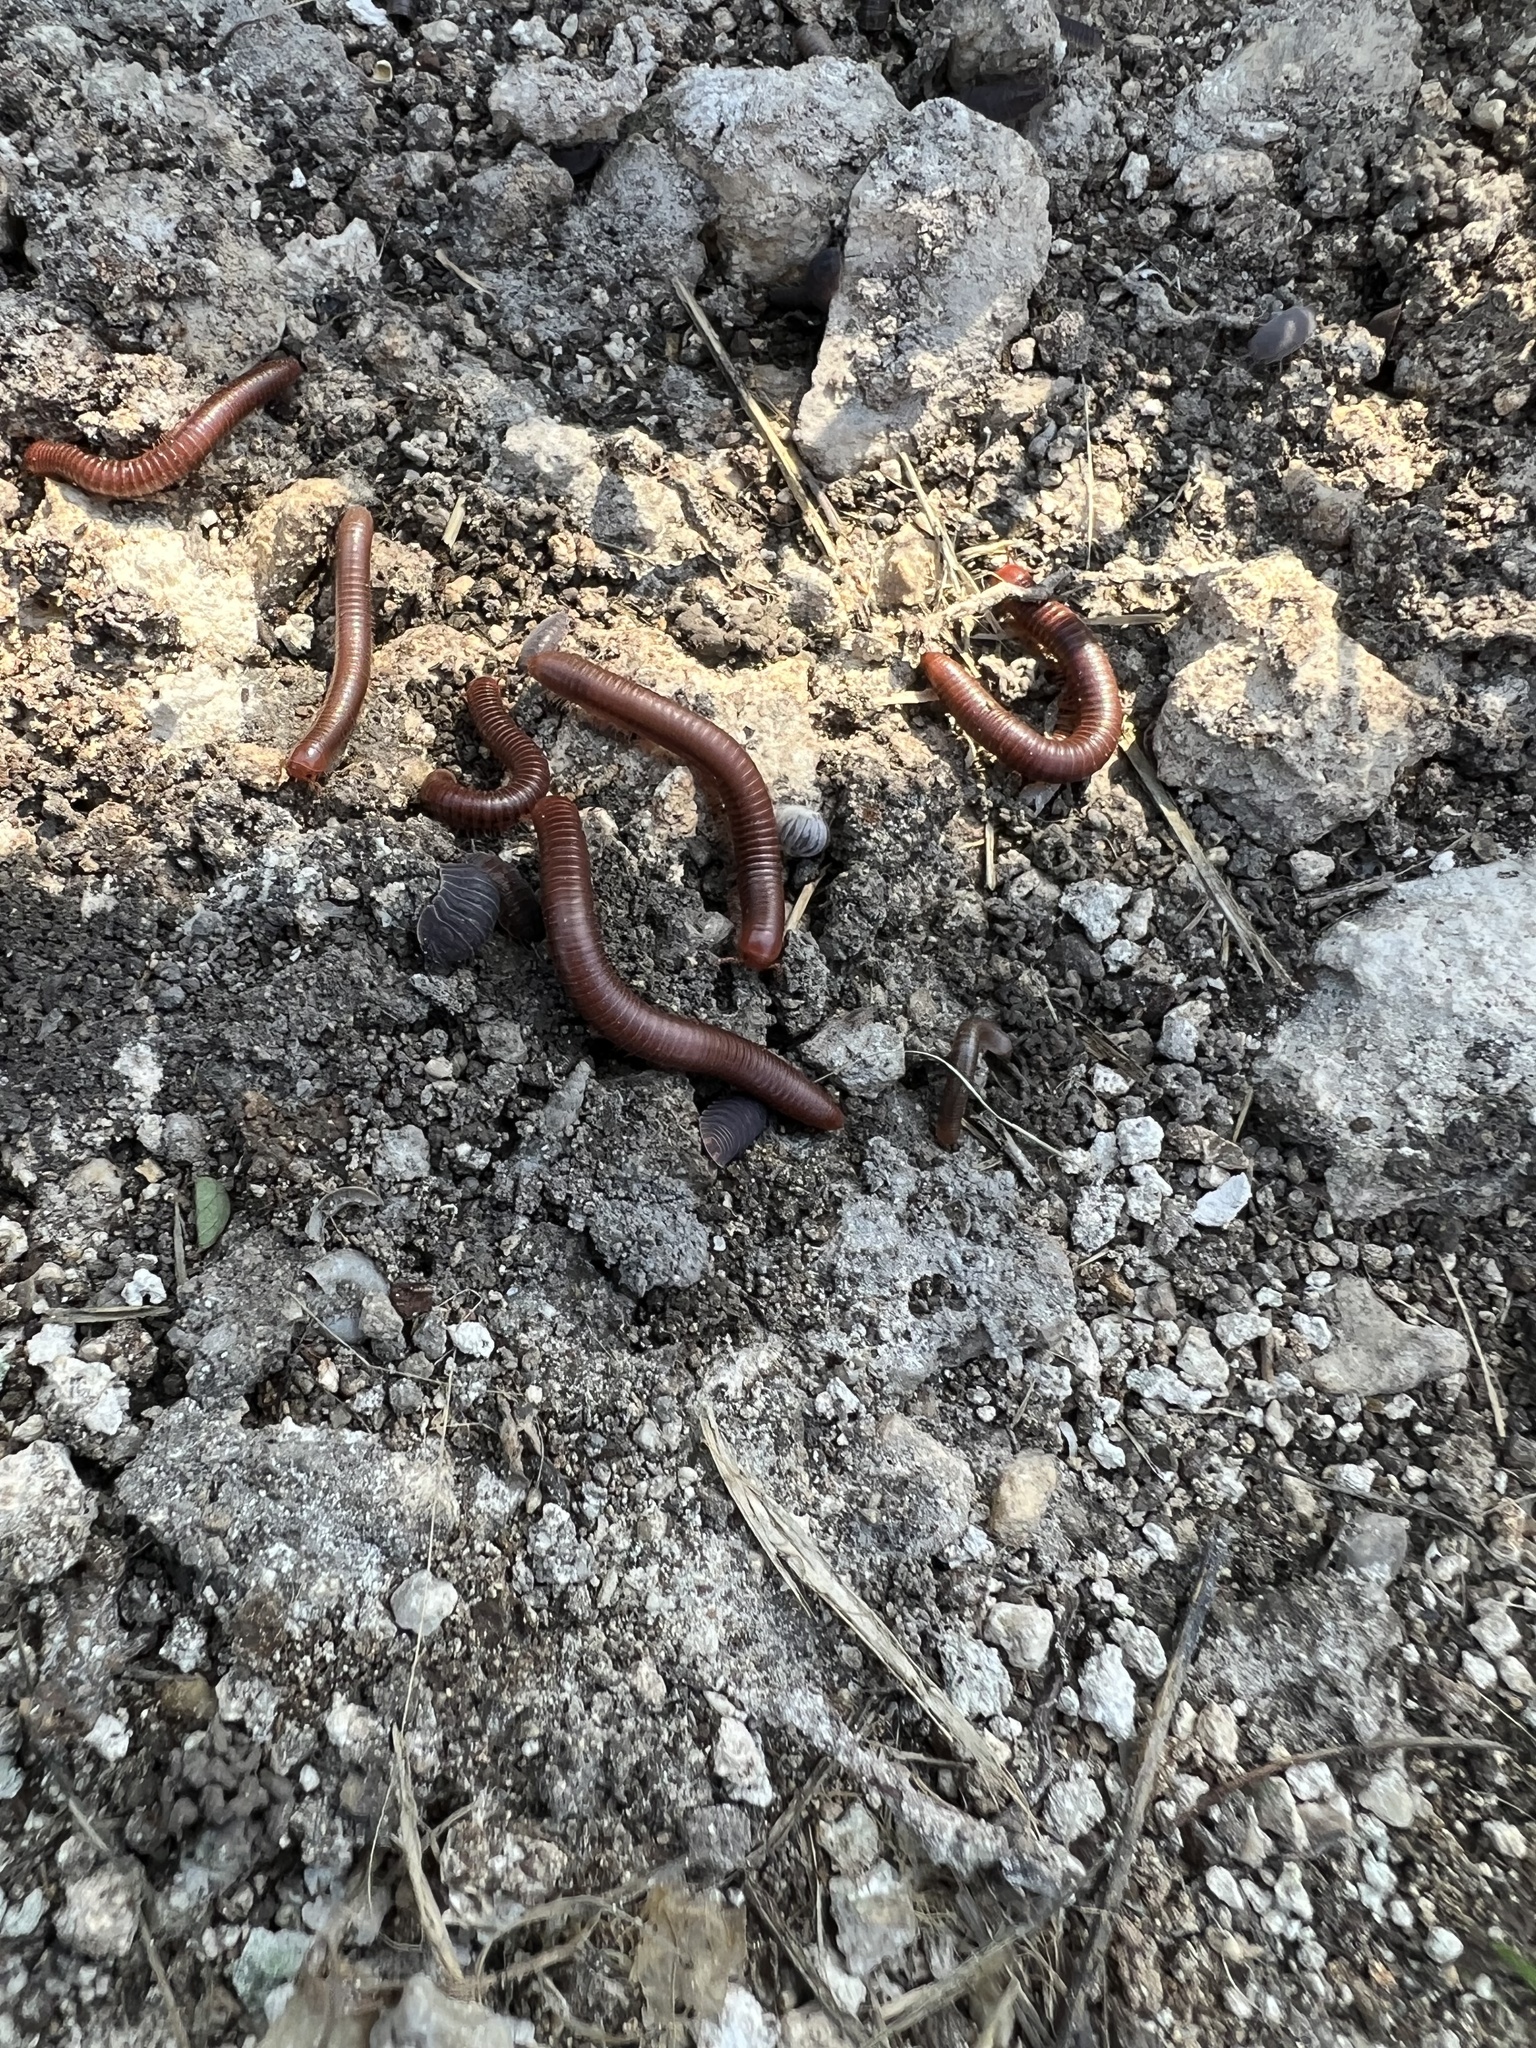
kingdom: Animalia
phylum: Arthropoda
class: Diplopoda
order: Spirobolida
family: Pachybolidae
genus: Trigoniulus
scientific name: Trigoniulus corallinus
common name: Millipede
